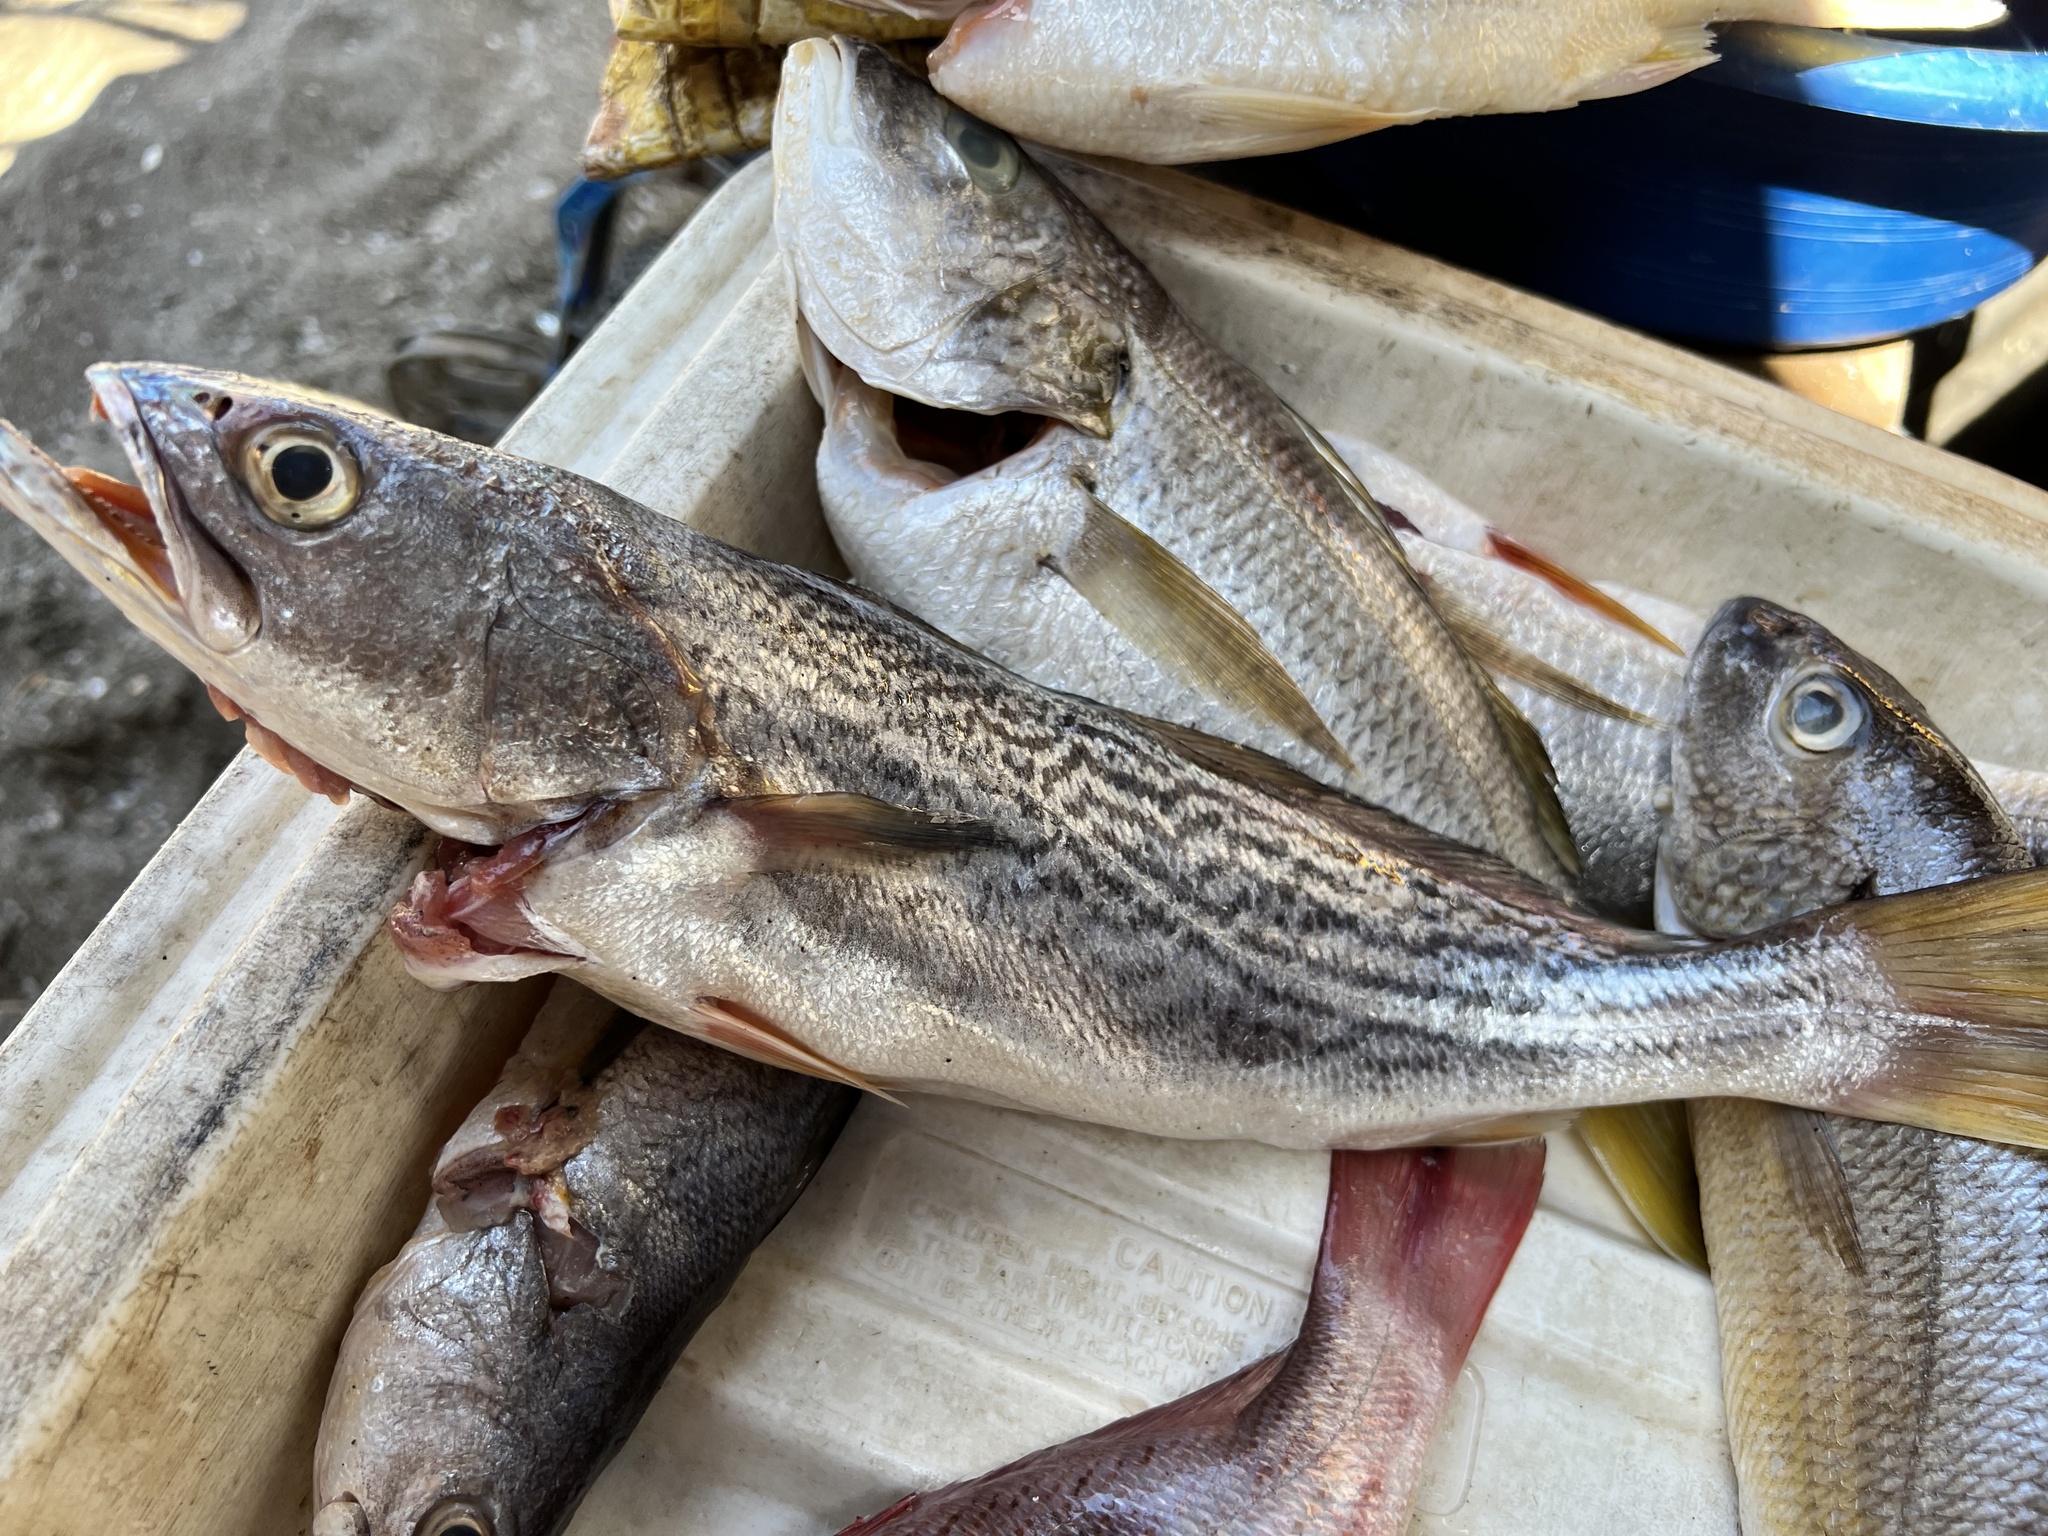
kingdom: Animalia
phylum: Chordata
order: Perciformes
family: Sciaenidae
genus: Cynoscion
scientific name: Cynoscion reticulatus
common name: Striped corvina
